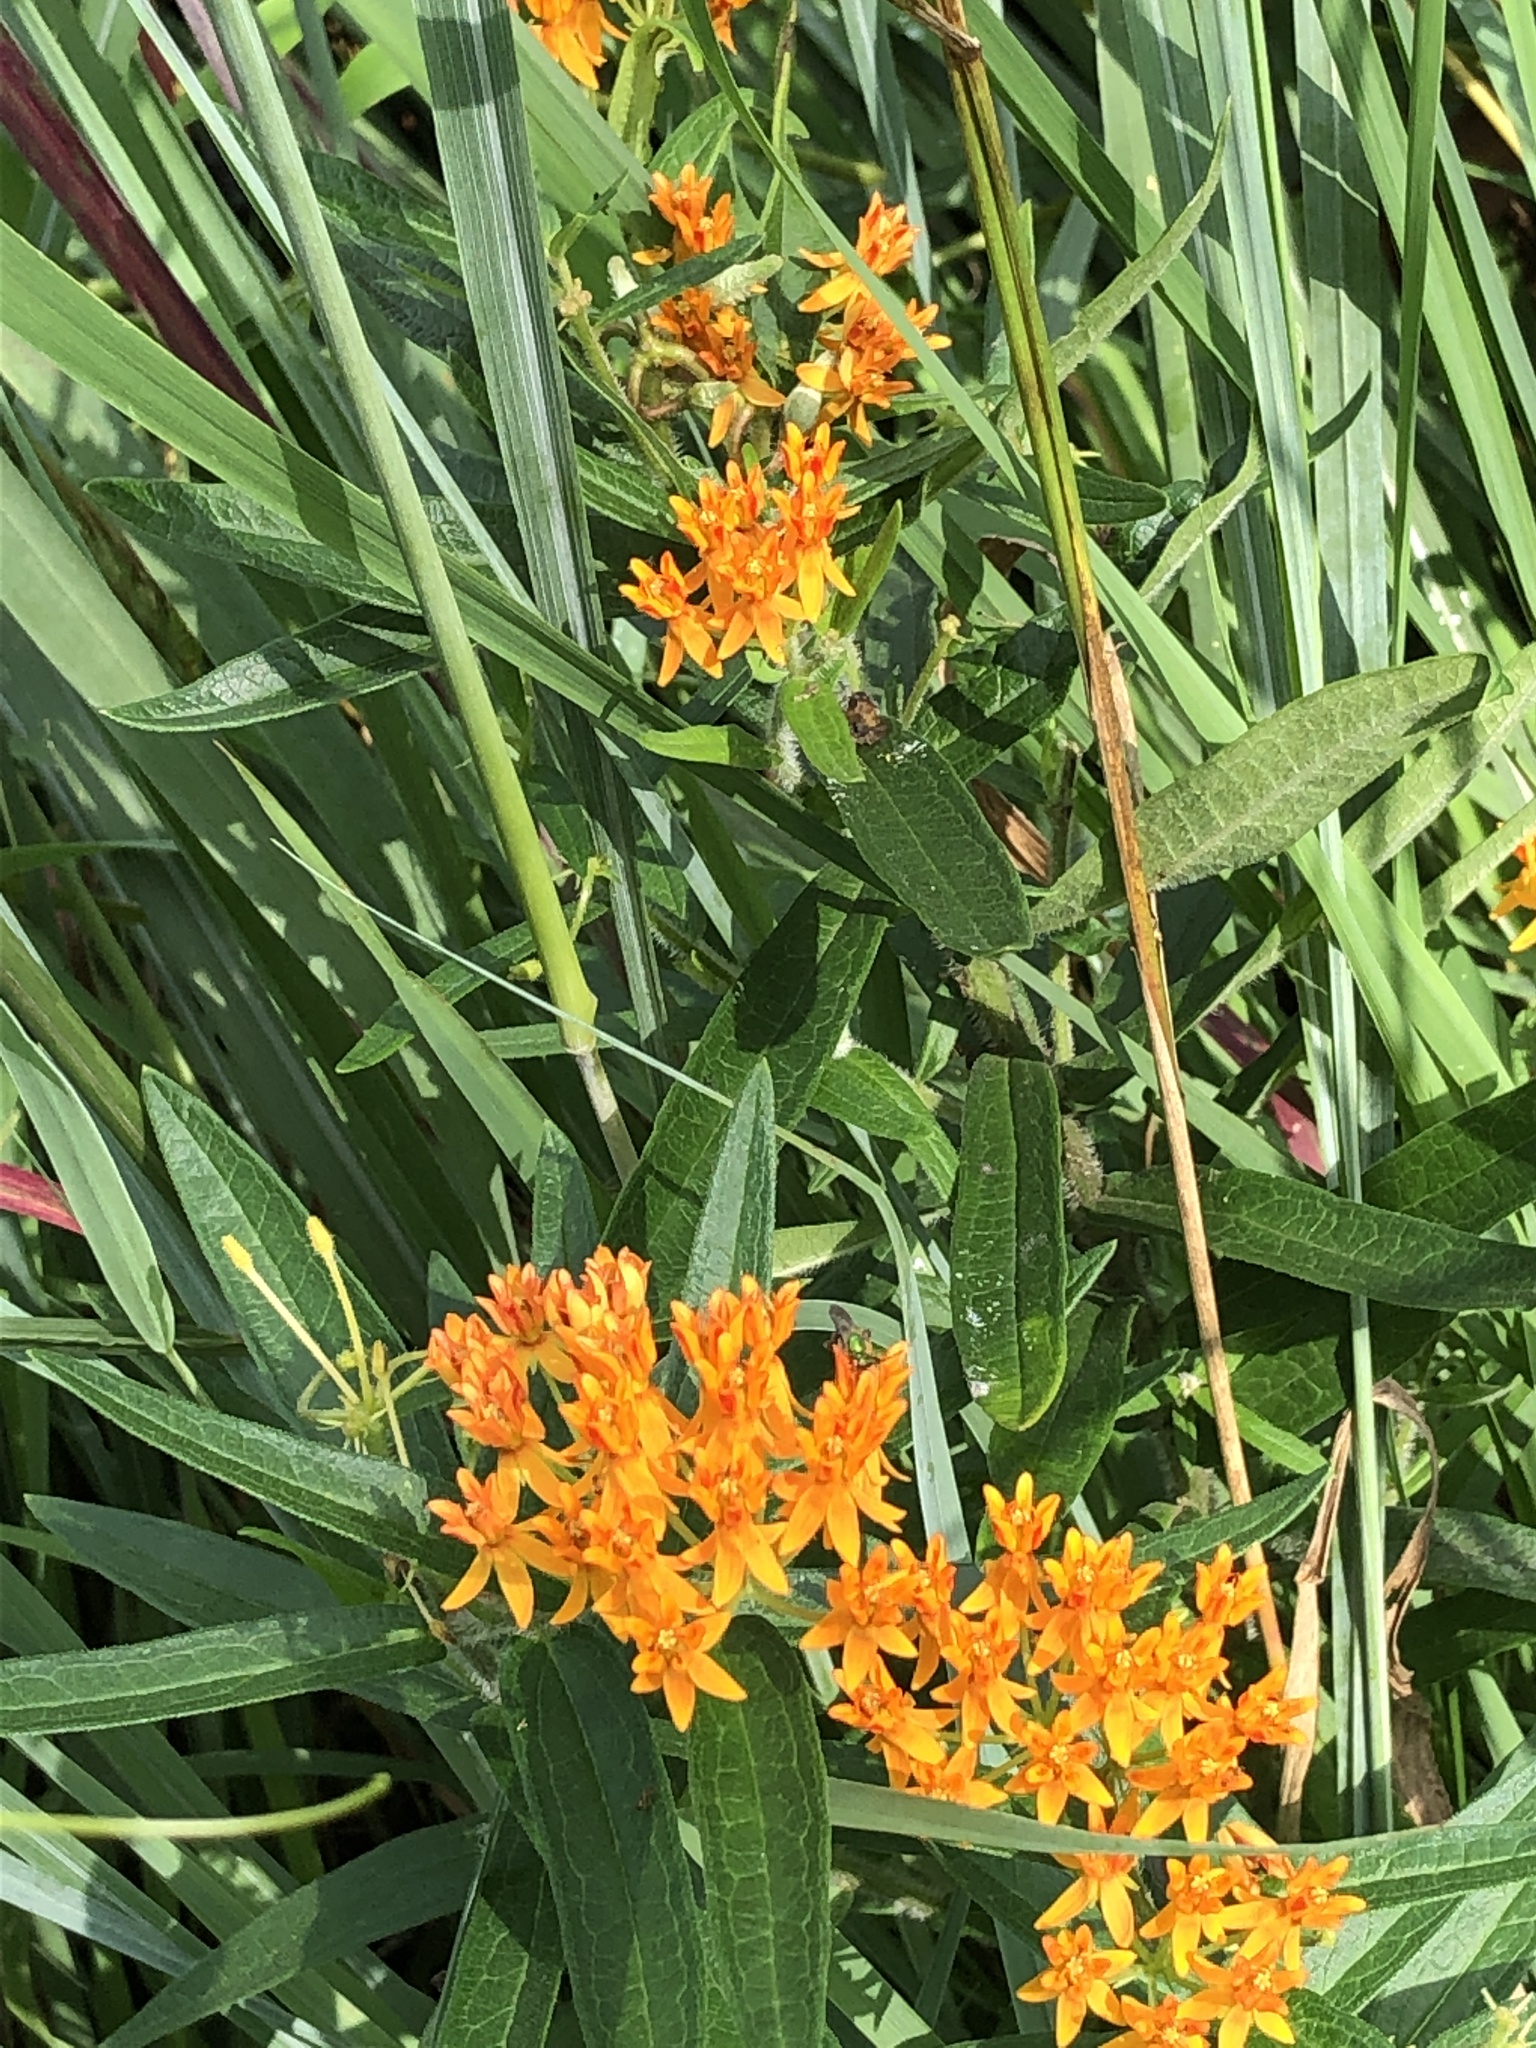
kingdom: Plantae
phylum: Tracheophyta
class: Magnoliopsida
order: Gentianales
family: Apocynaceae
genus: Asclepias
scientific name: Asclepias tuberosa
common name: Butterfly milkweed
